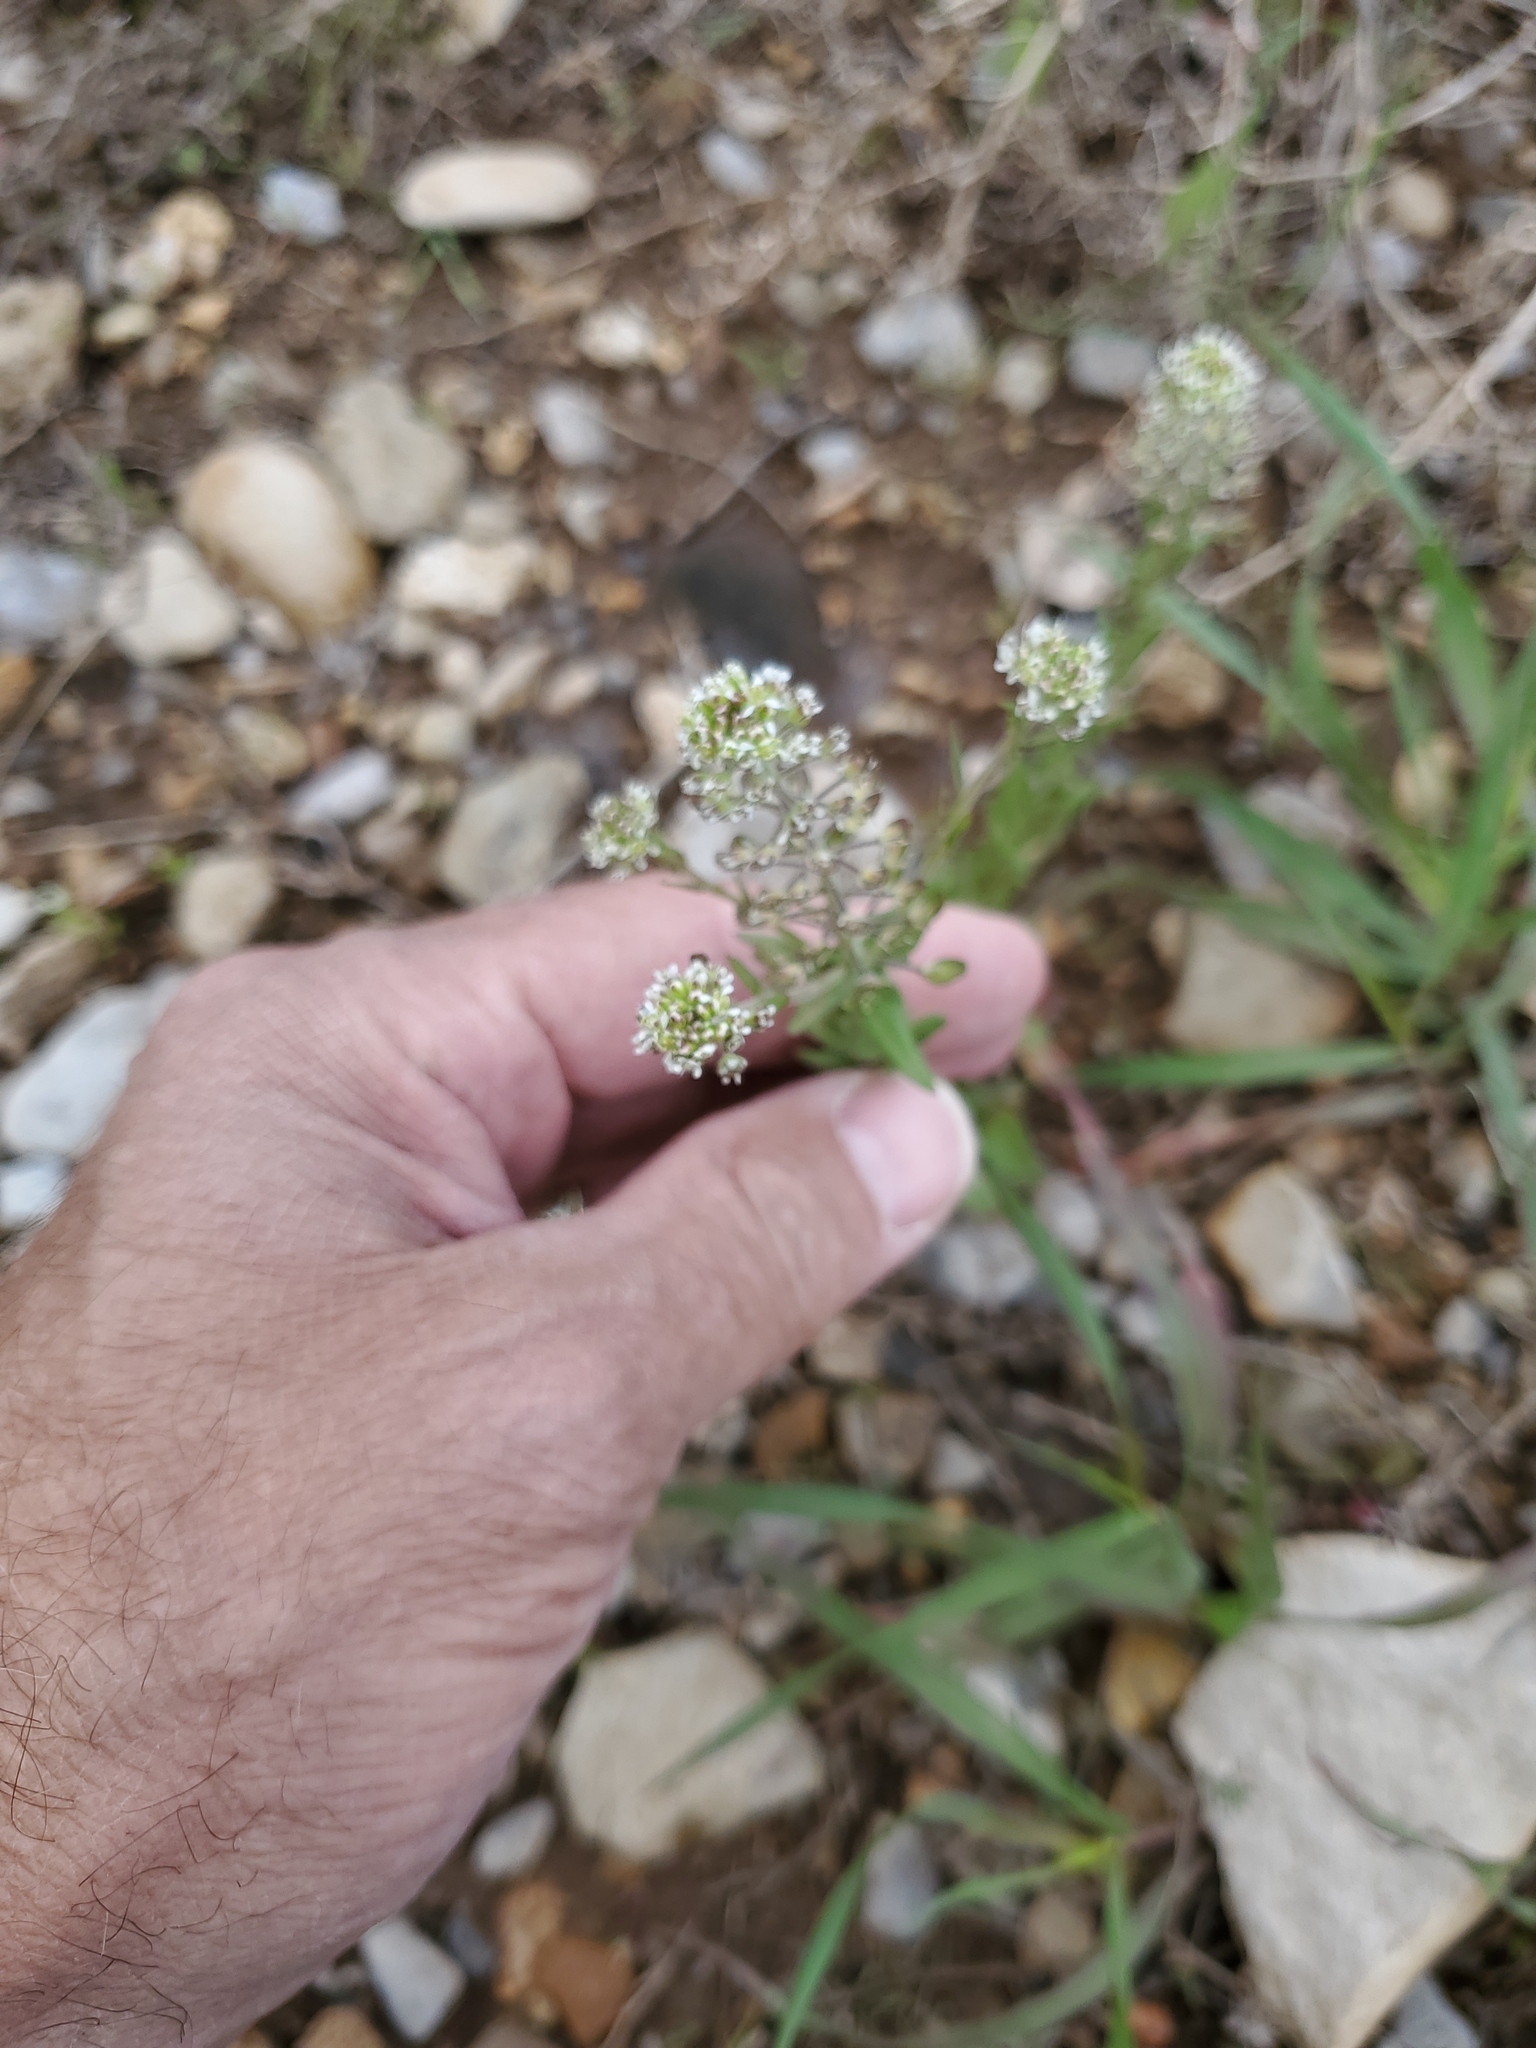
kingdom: Plantae
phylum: Tracheophyta
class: Magnoliopsida
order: Brassicales
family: Brassicaceae
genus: Lepidium
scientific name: Lepidium campestre
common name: Field pepperwort
